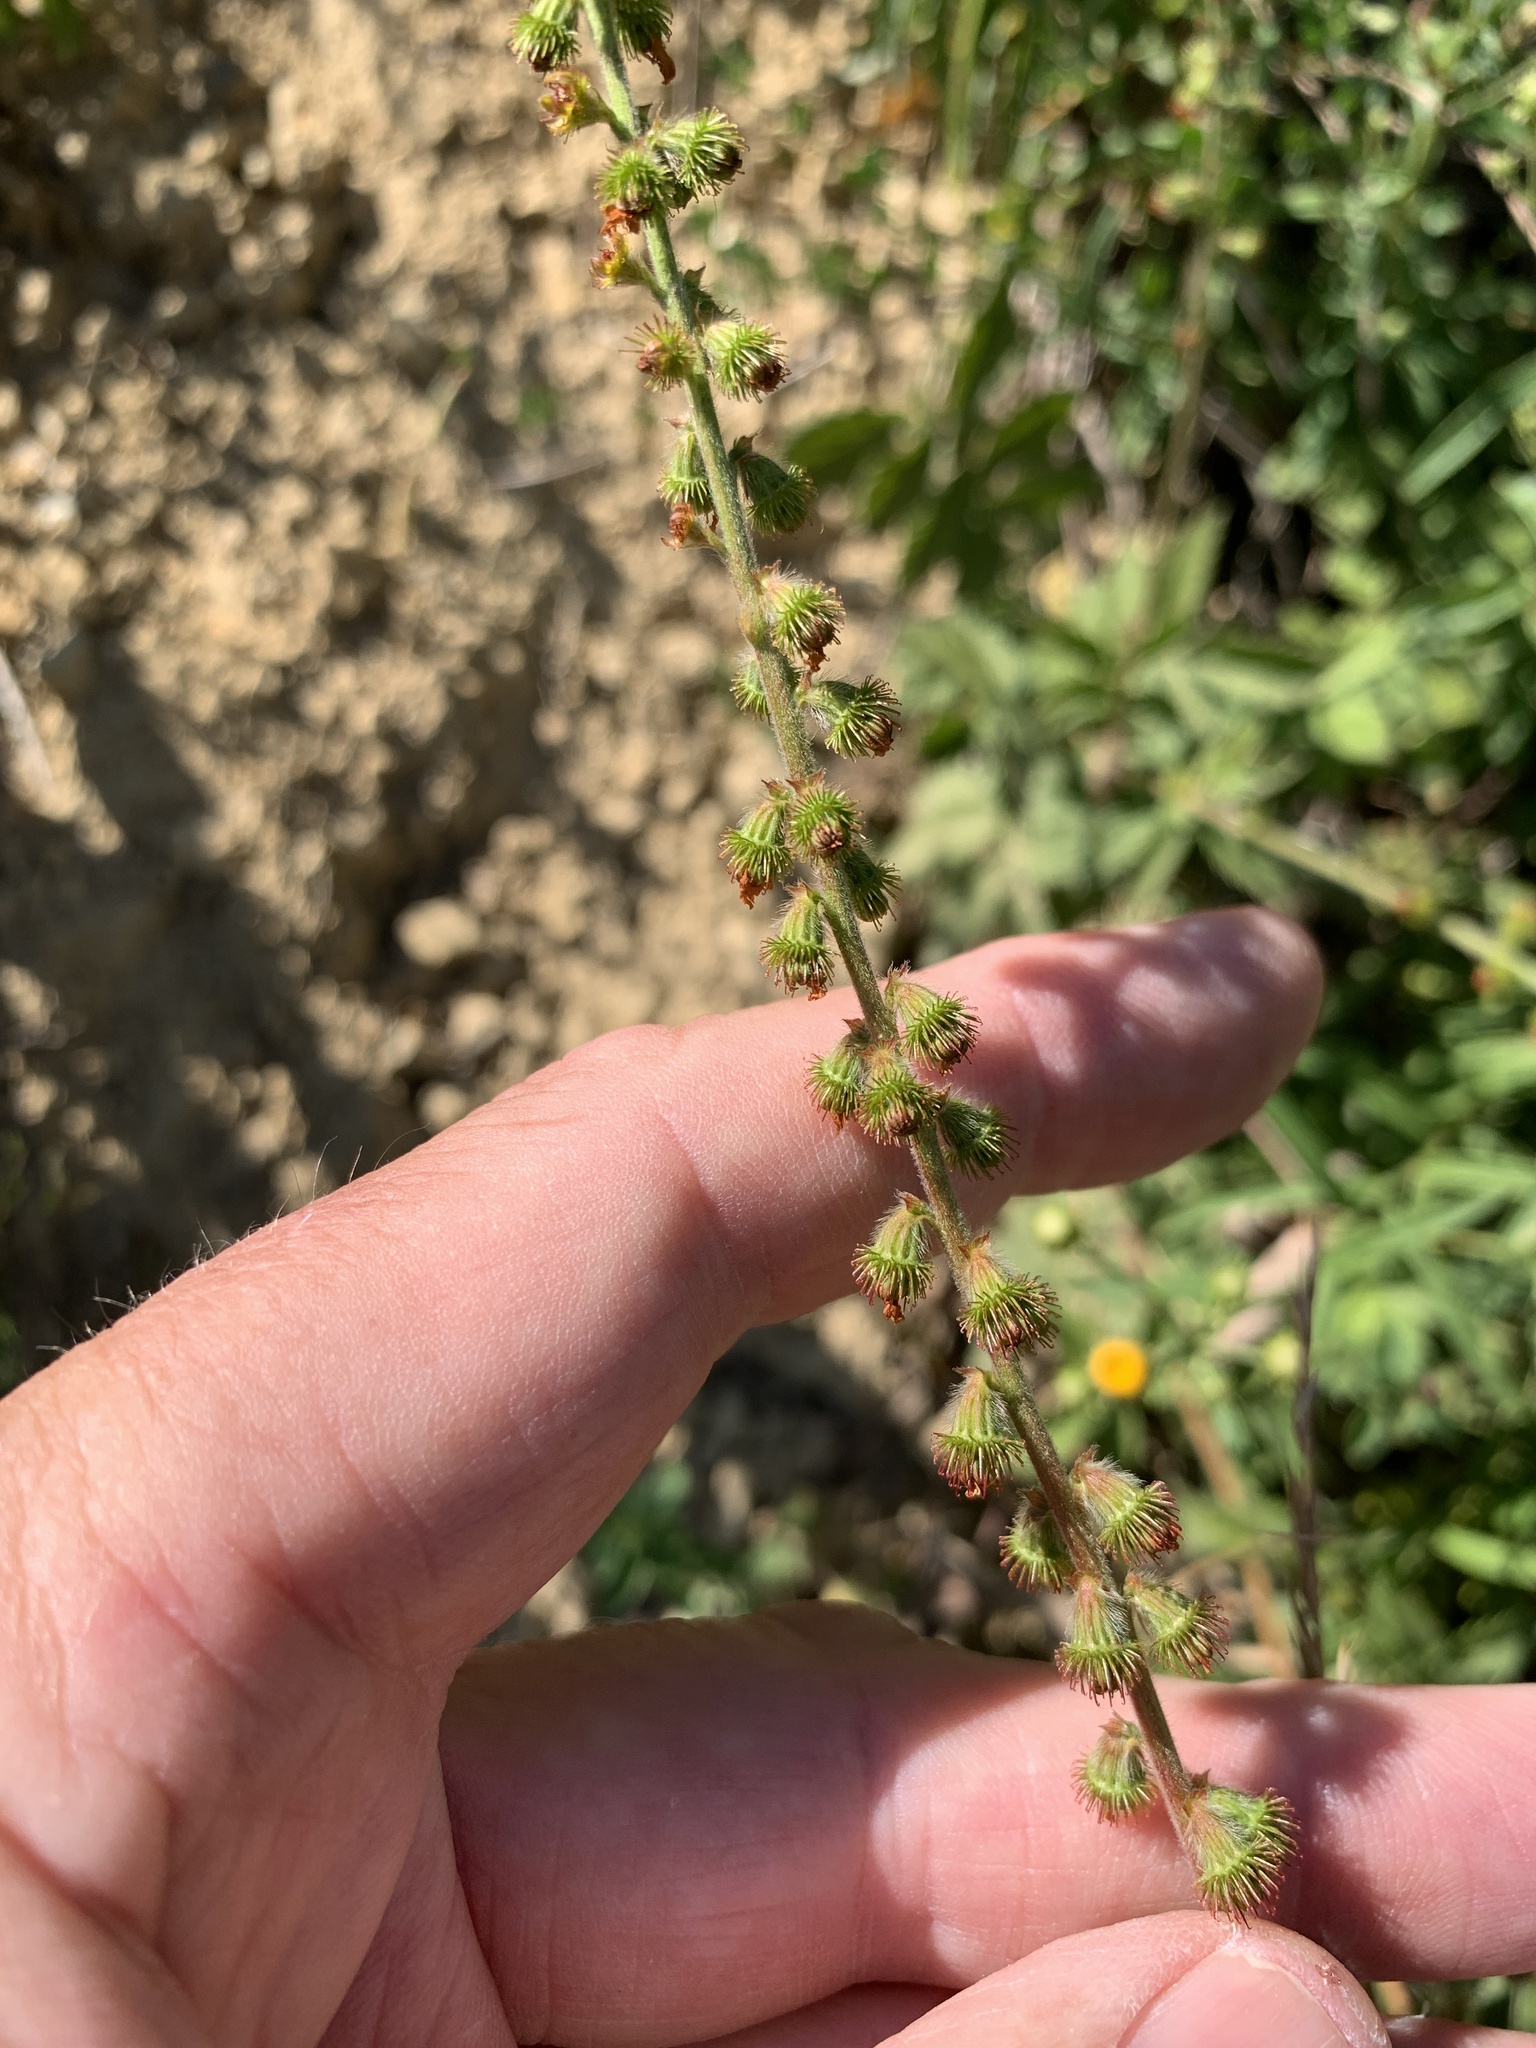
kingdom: Plantae
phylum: Tracheophyta
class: Magnoliopsida
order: Rosales
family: Rosaceae
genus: Agrimonia
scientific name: Agrimonia eupatoria
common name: Agrimony
